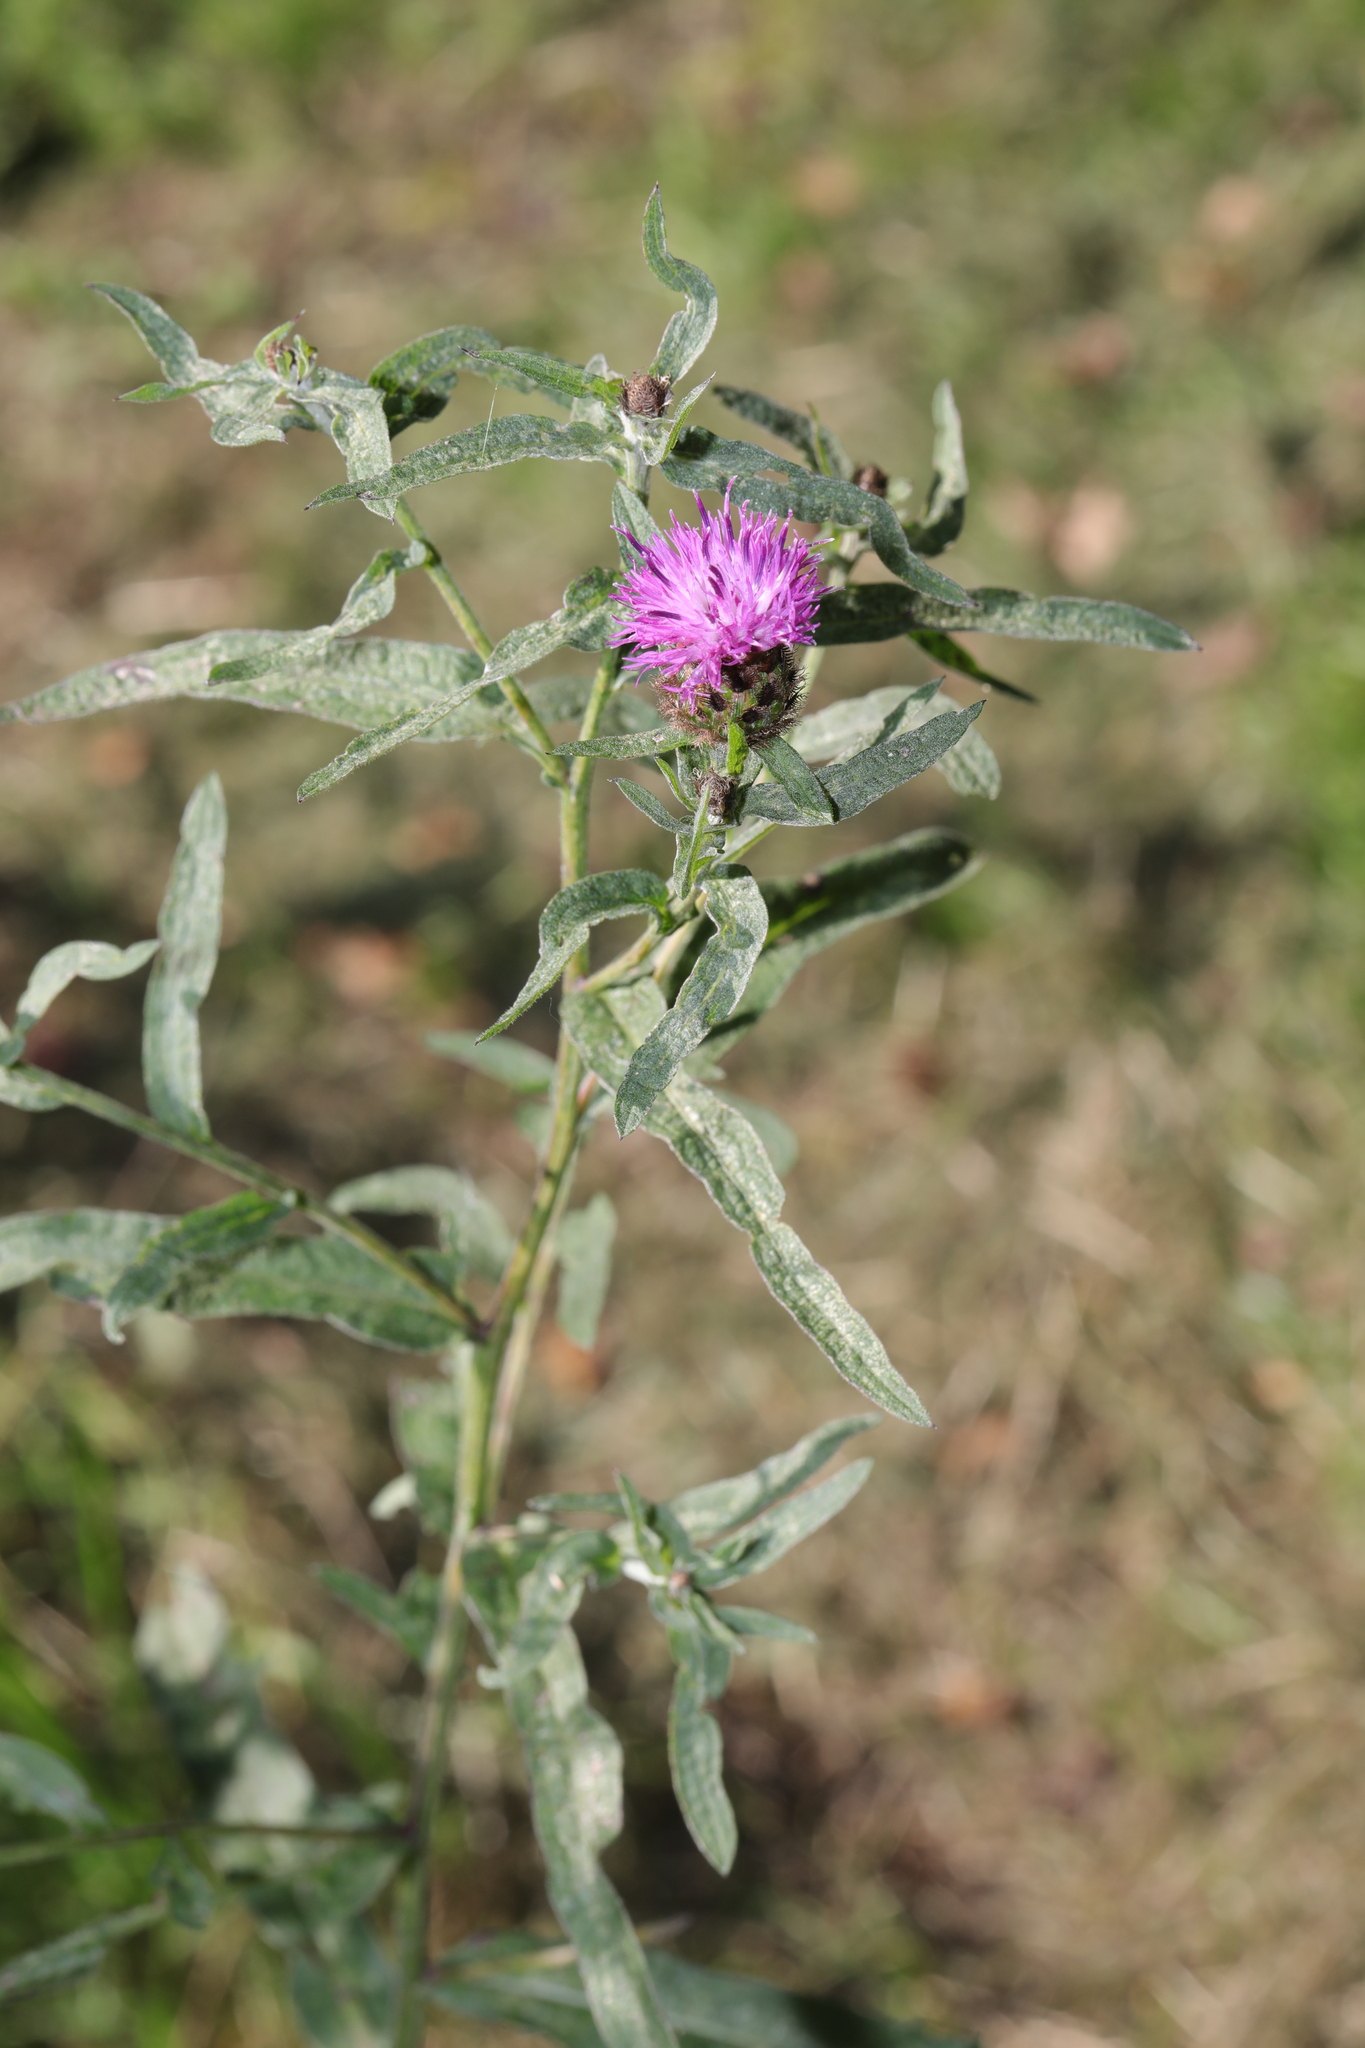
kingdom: Plantae
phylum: Tracheophyta
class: Magnoliopsida
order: Asterales
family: Asteraceae
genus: Centaurea
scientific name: Centaurea nigra
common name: Lesser knapweed
